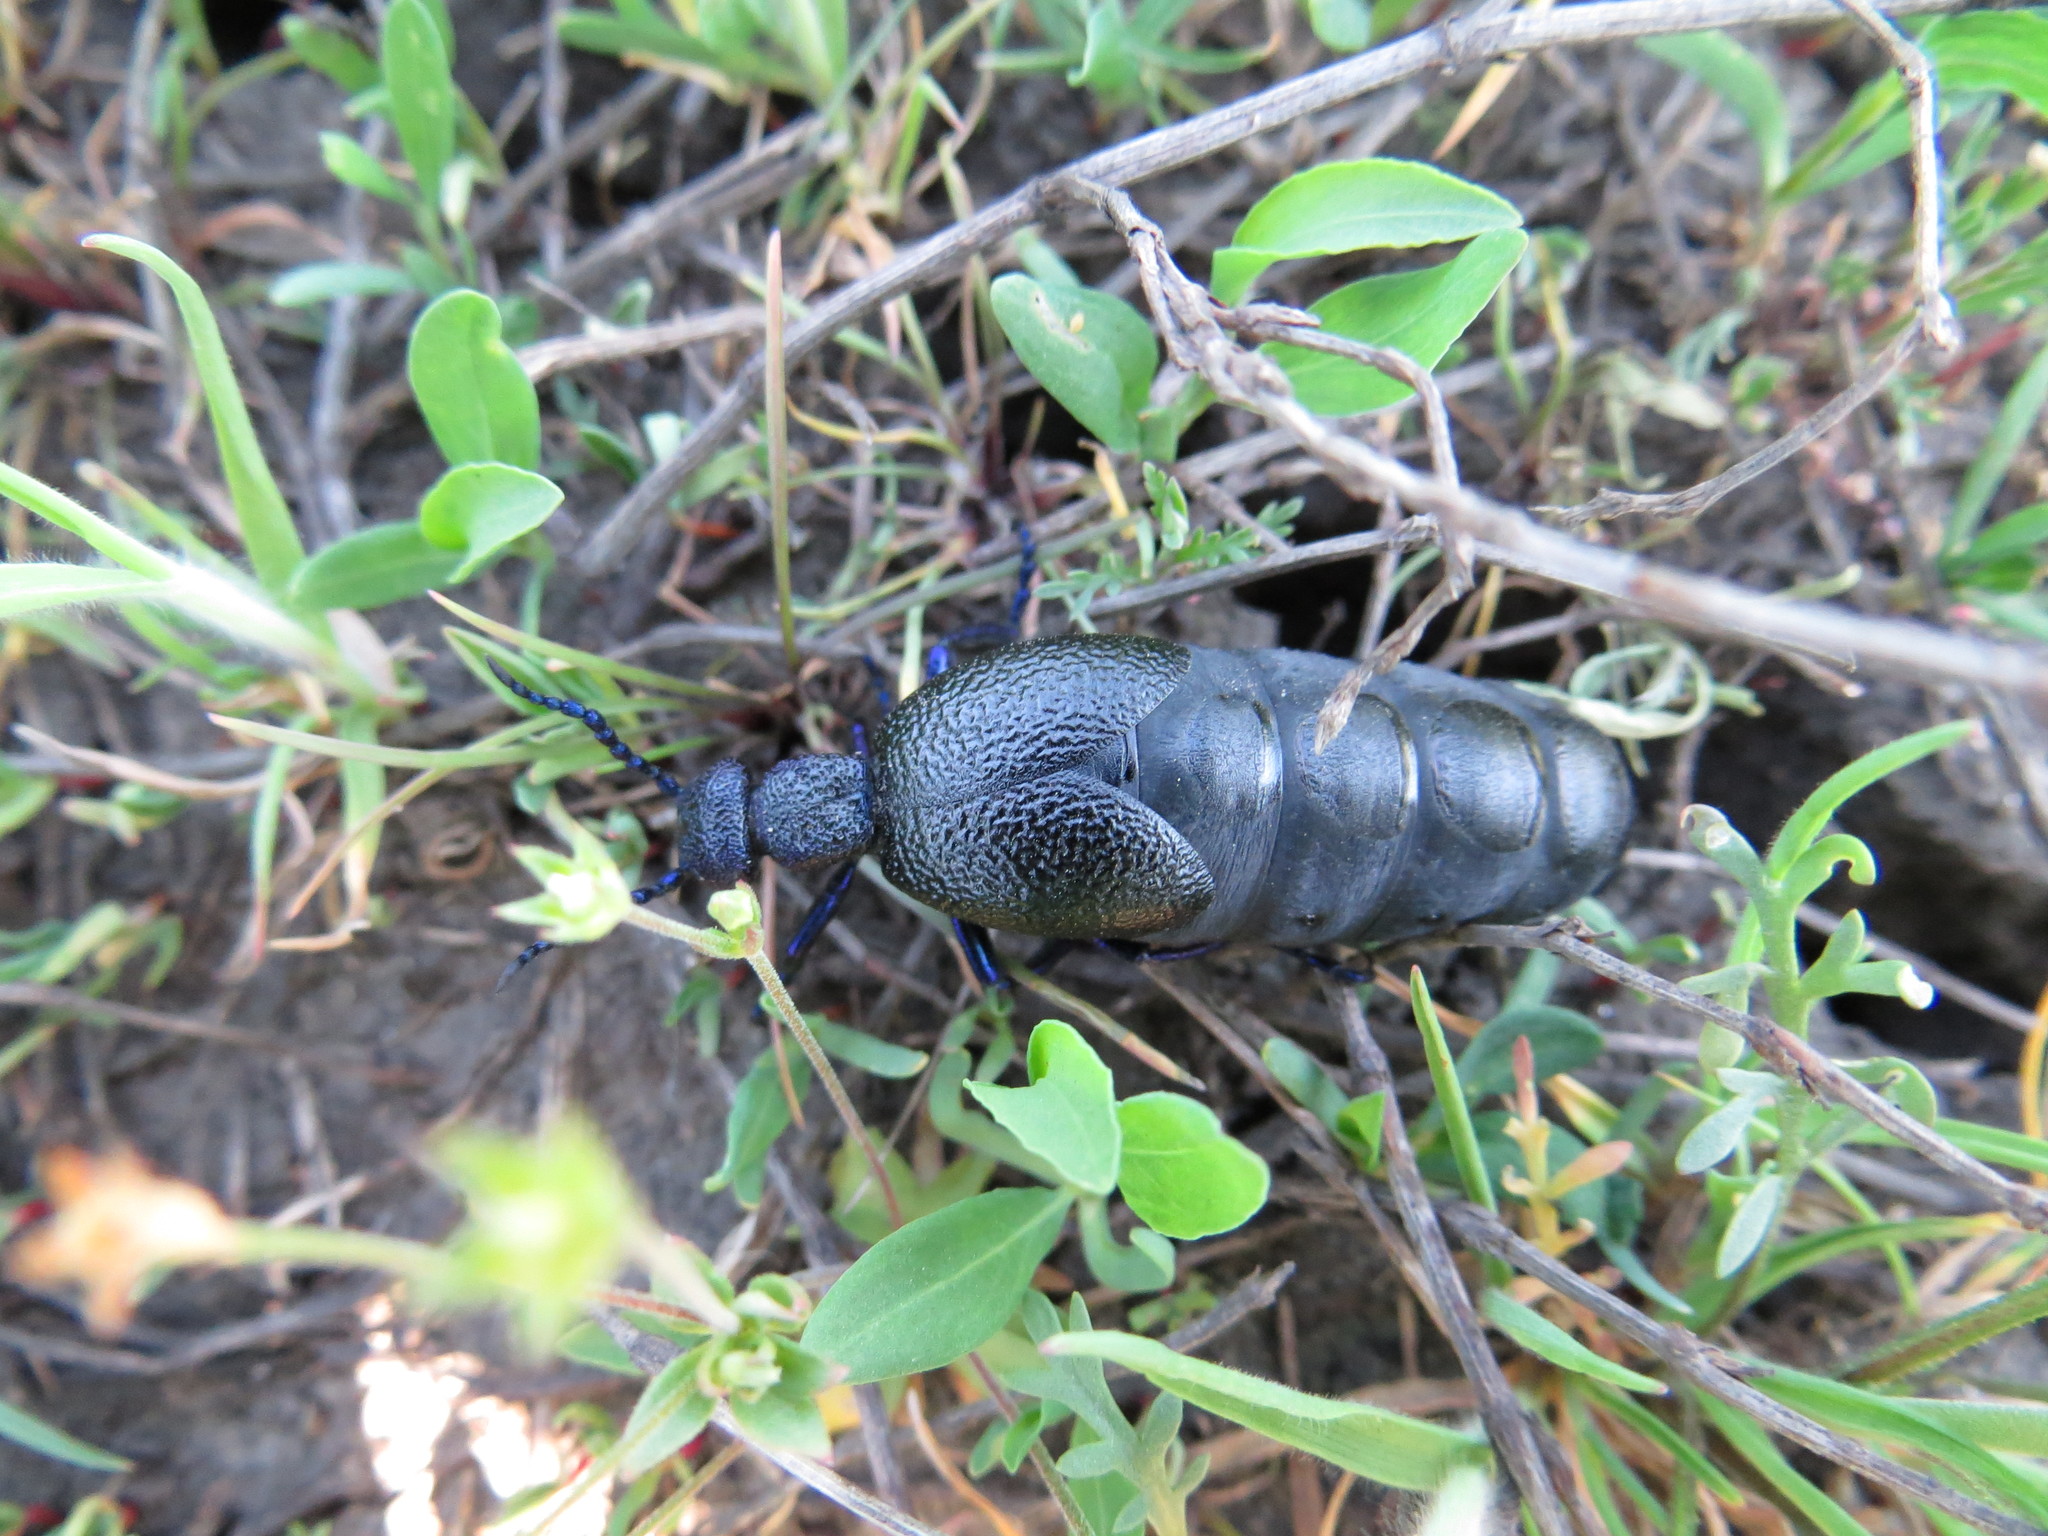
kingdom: Animalia
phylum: Arthropoda
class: Insecta
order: Coleoptera
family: Meloidae
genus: Meloe
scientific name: Meloe proscarabaeus
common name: Black oil-beetle
